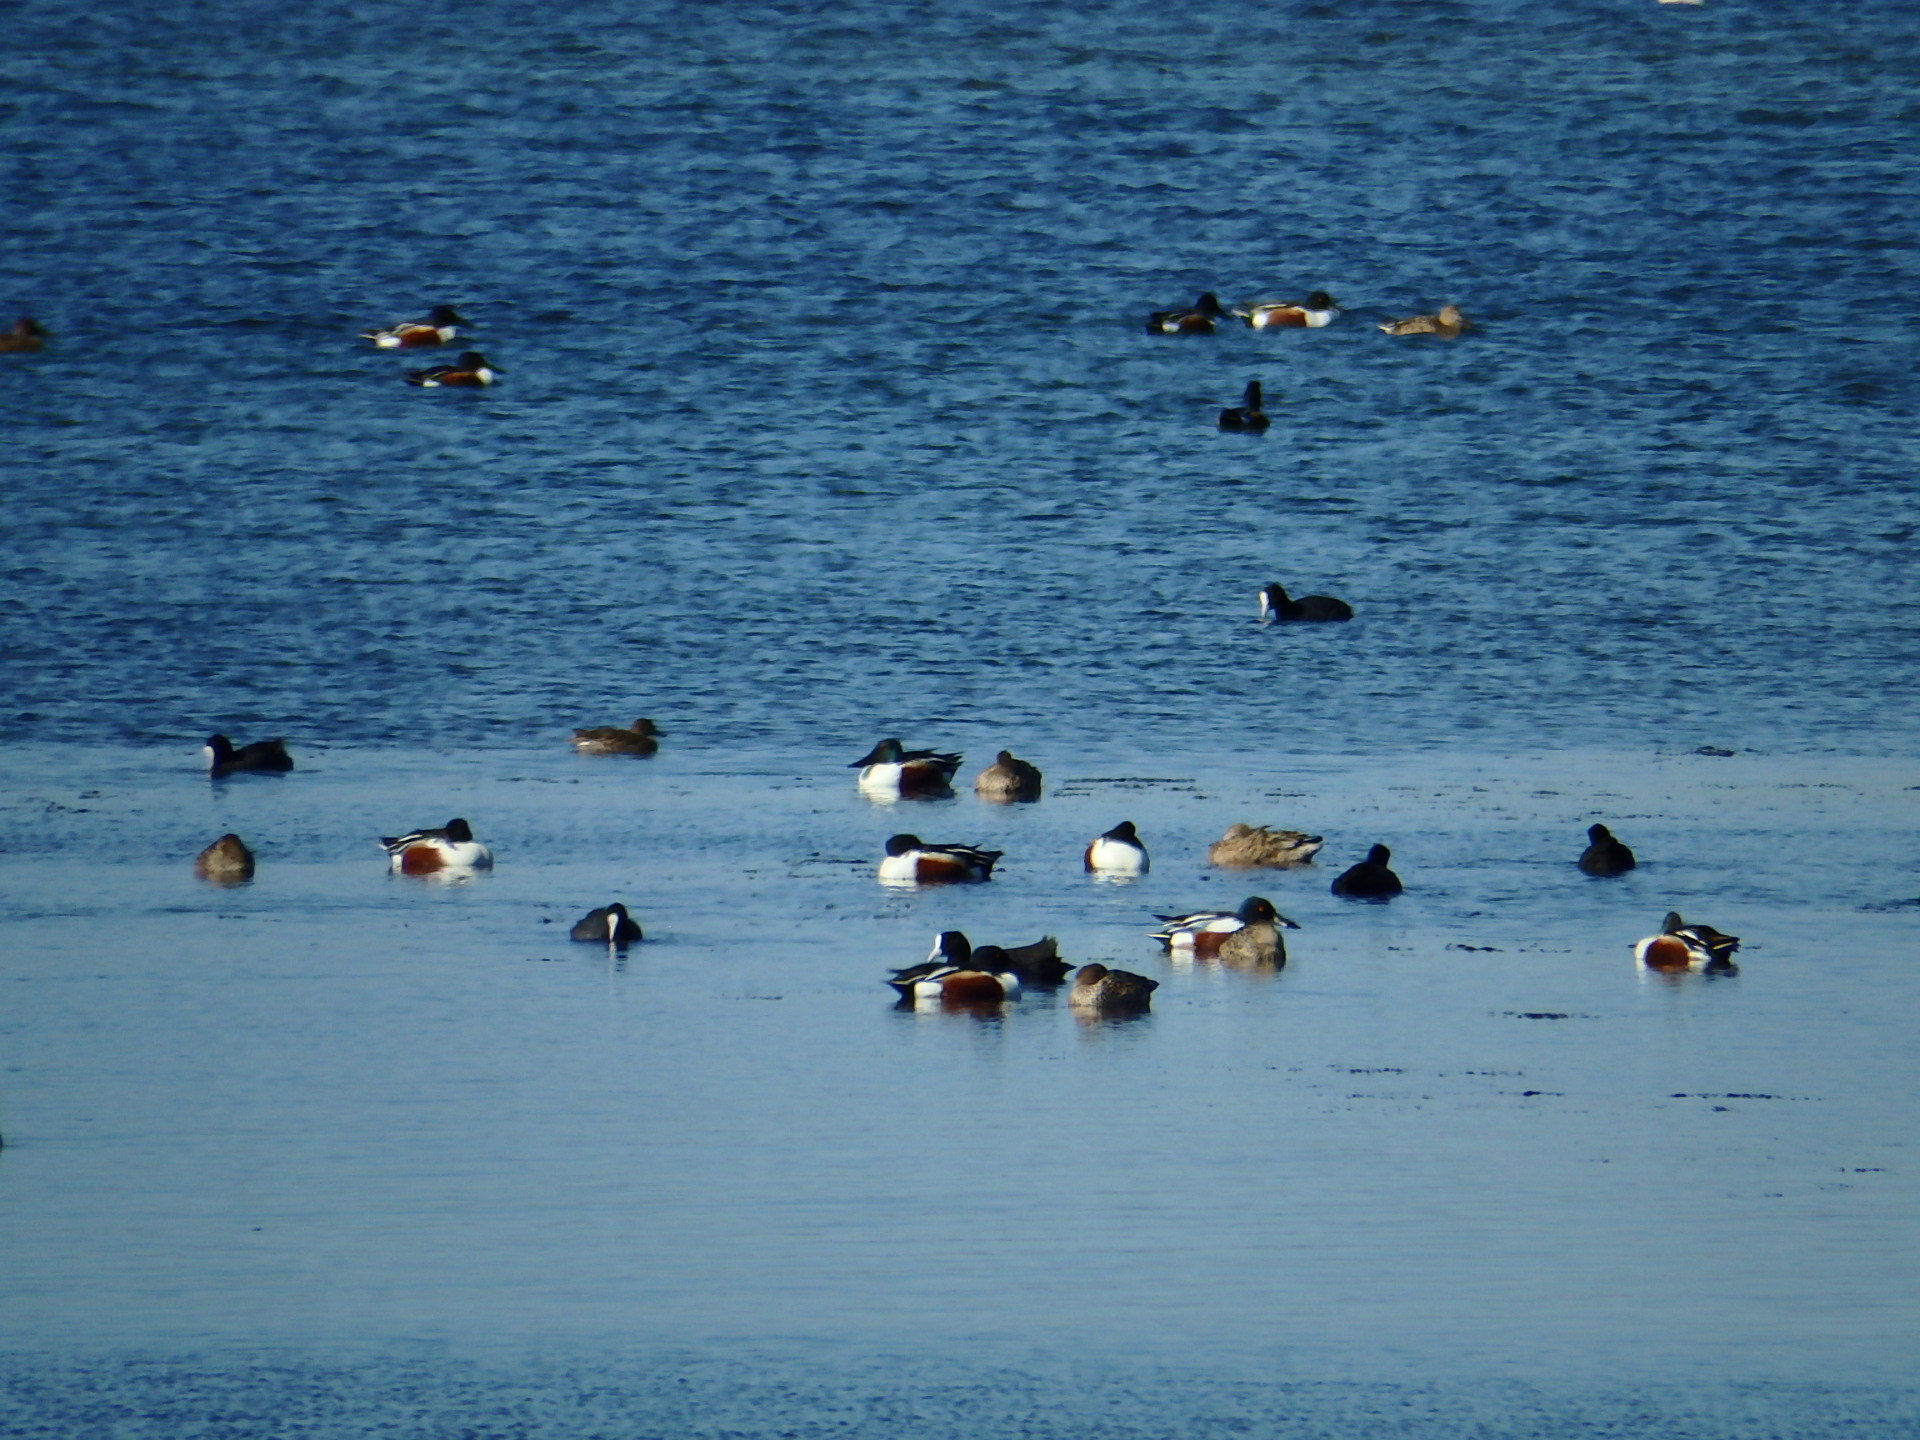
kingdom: Animalia
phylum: Chordata
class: Aves
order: Anseriformes
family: Anatidae
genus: Spatula
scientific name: Spatula clypeata
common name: Northern shoveler
